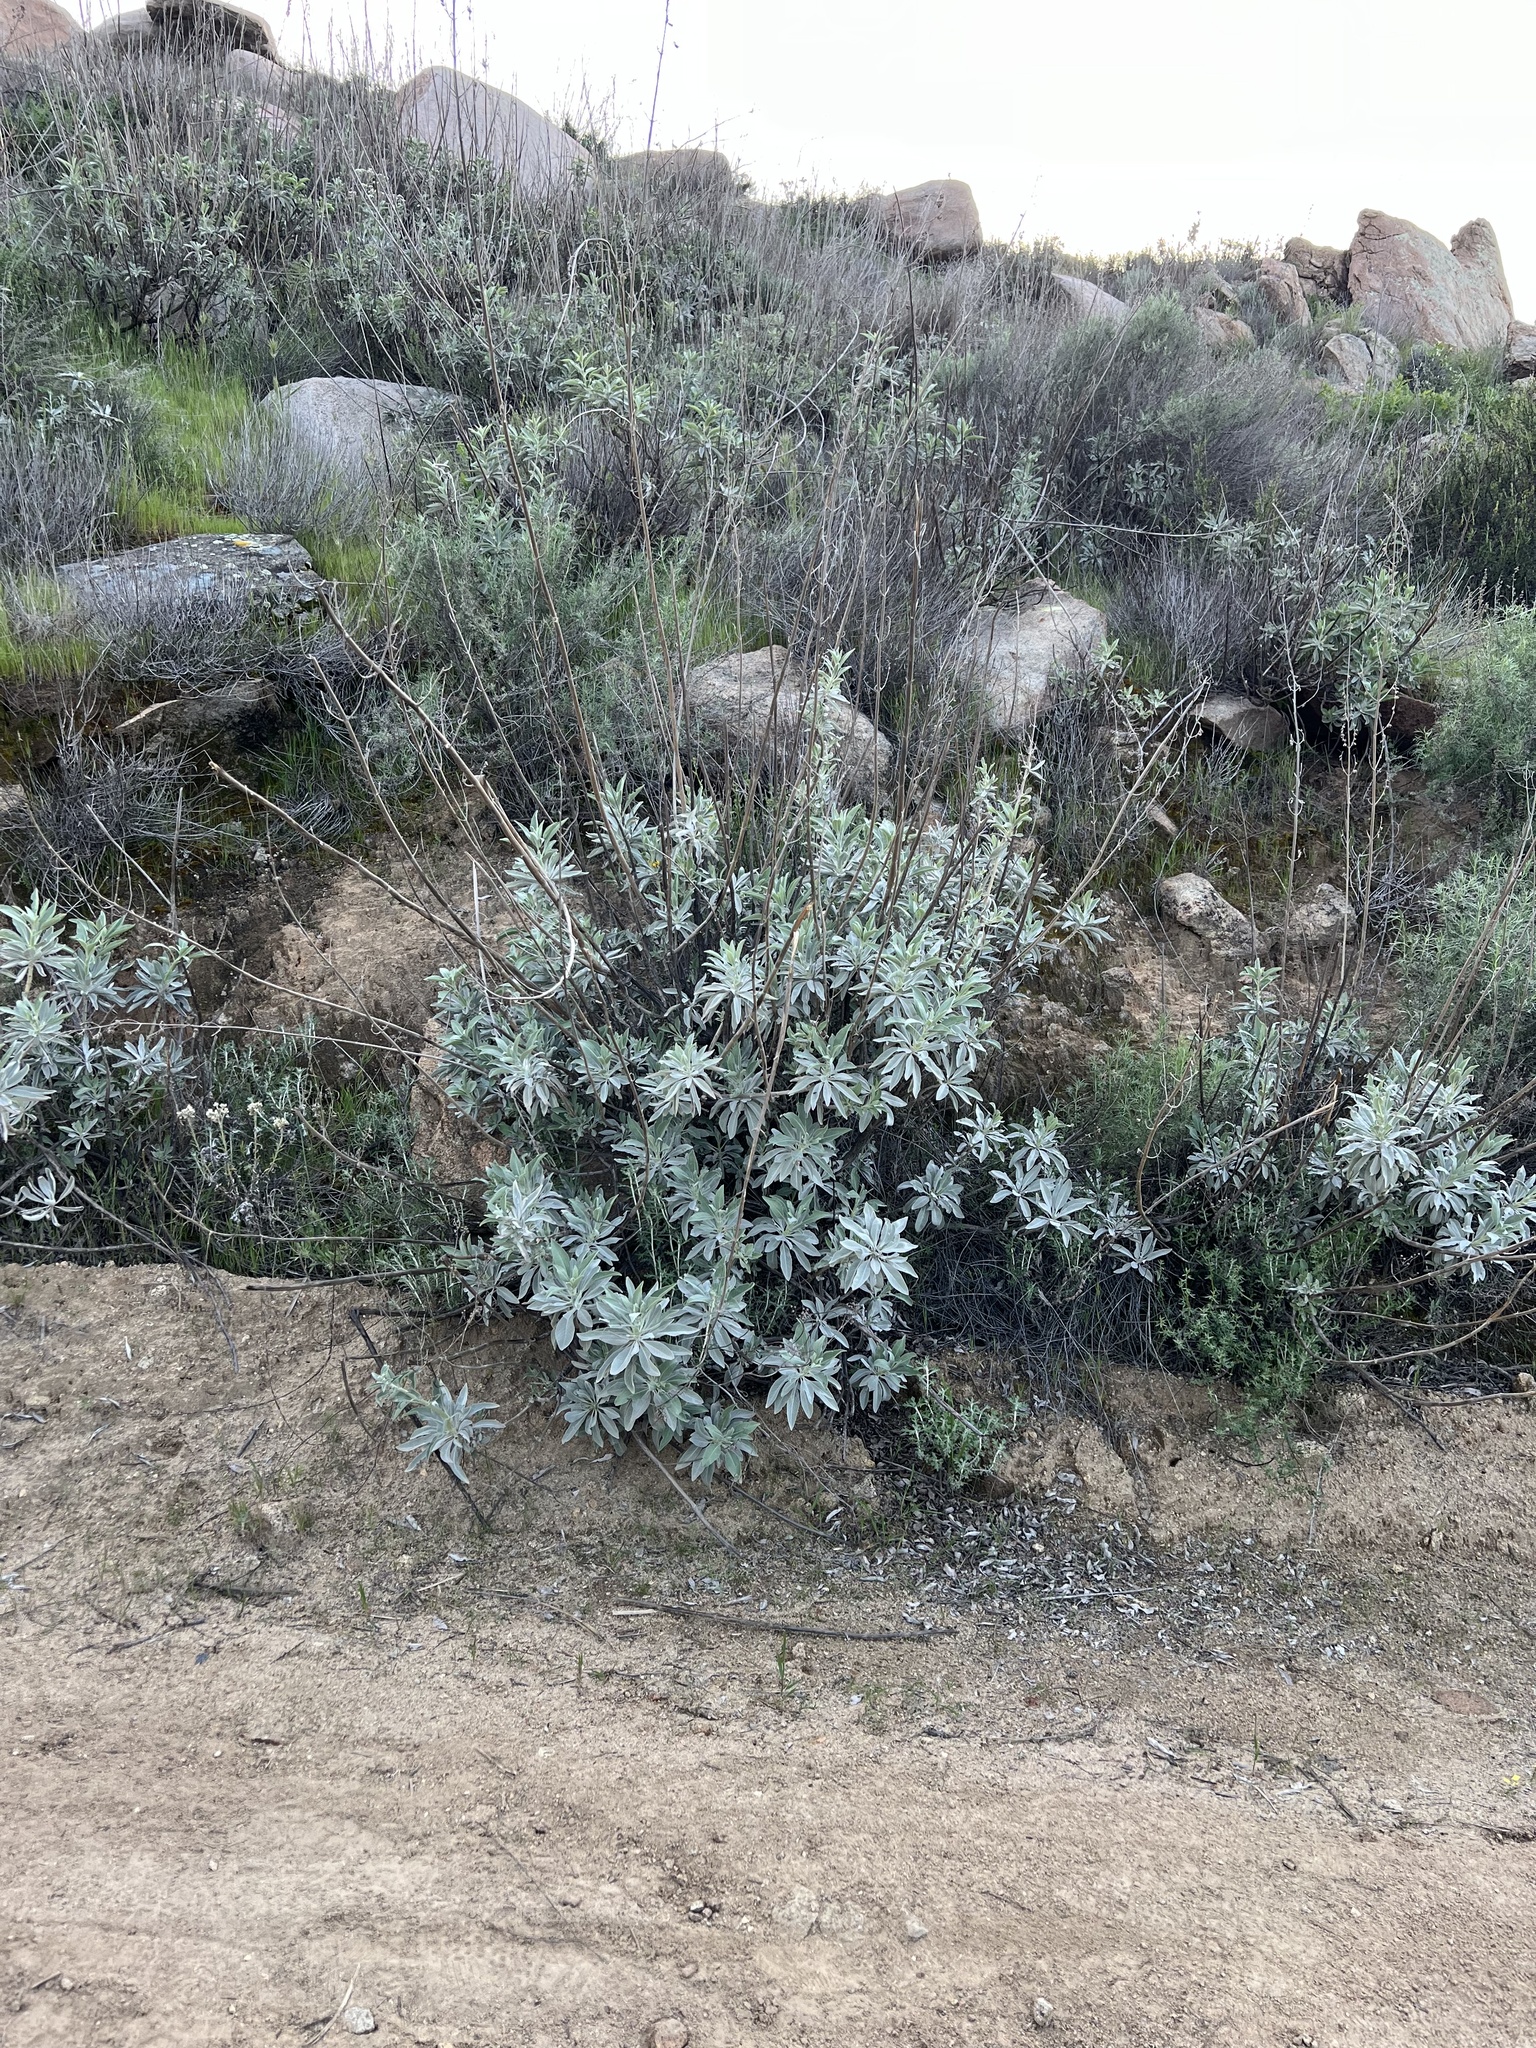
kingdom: Plantae
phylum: Tracheophyta
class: Magnoliopsida
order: Lamiales
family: Lamiaceae
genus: Salvia
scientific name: Salvia apiana
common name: White sage
